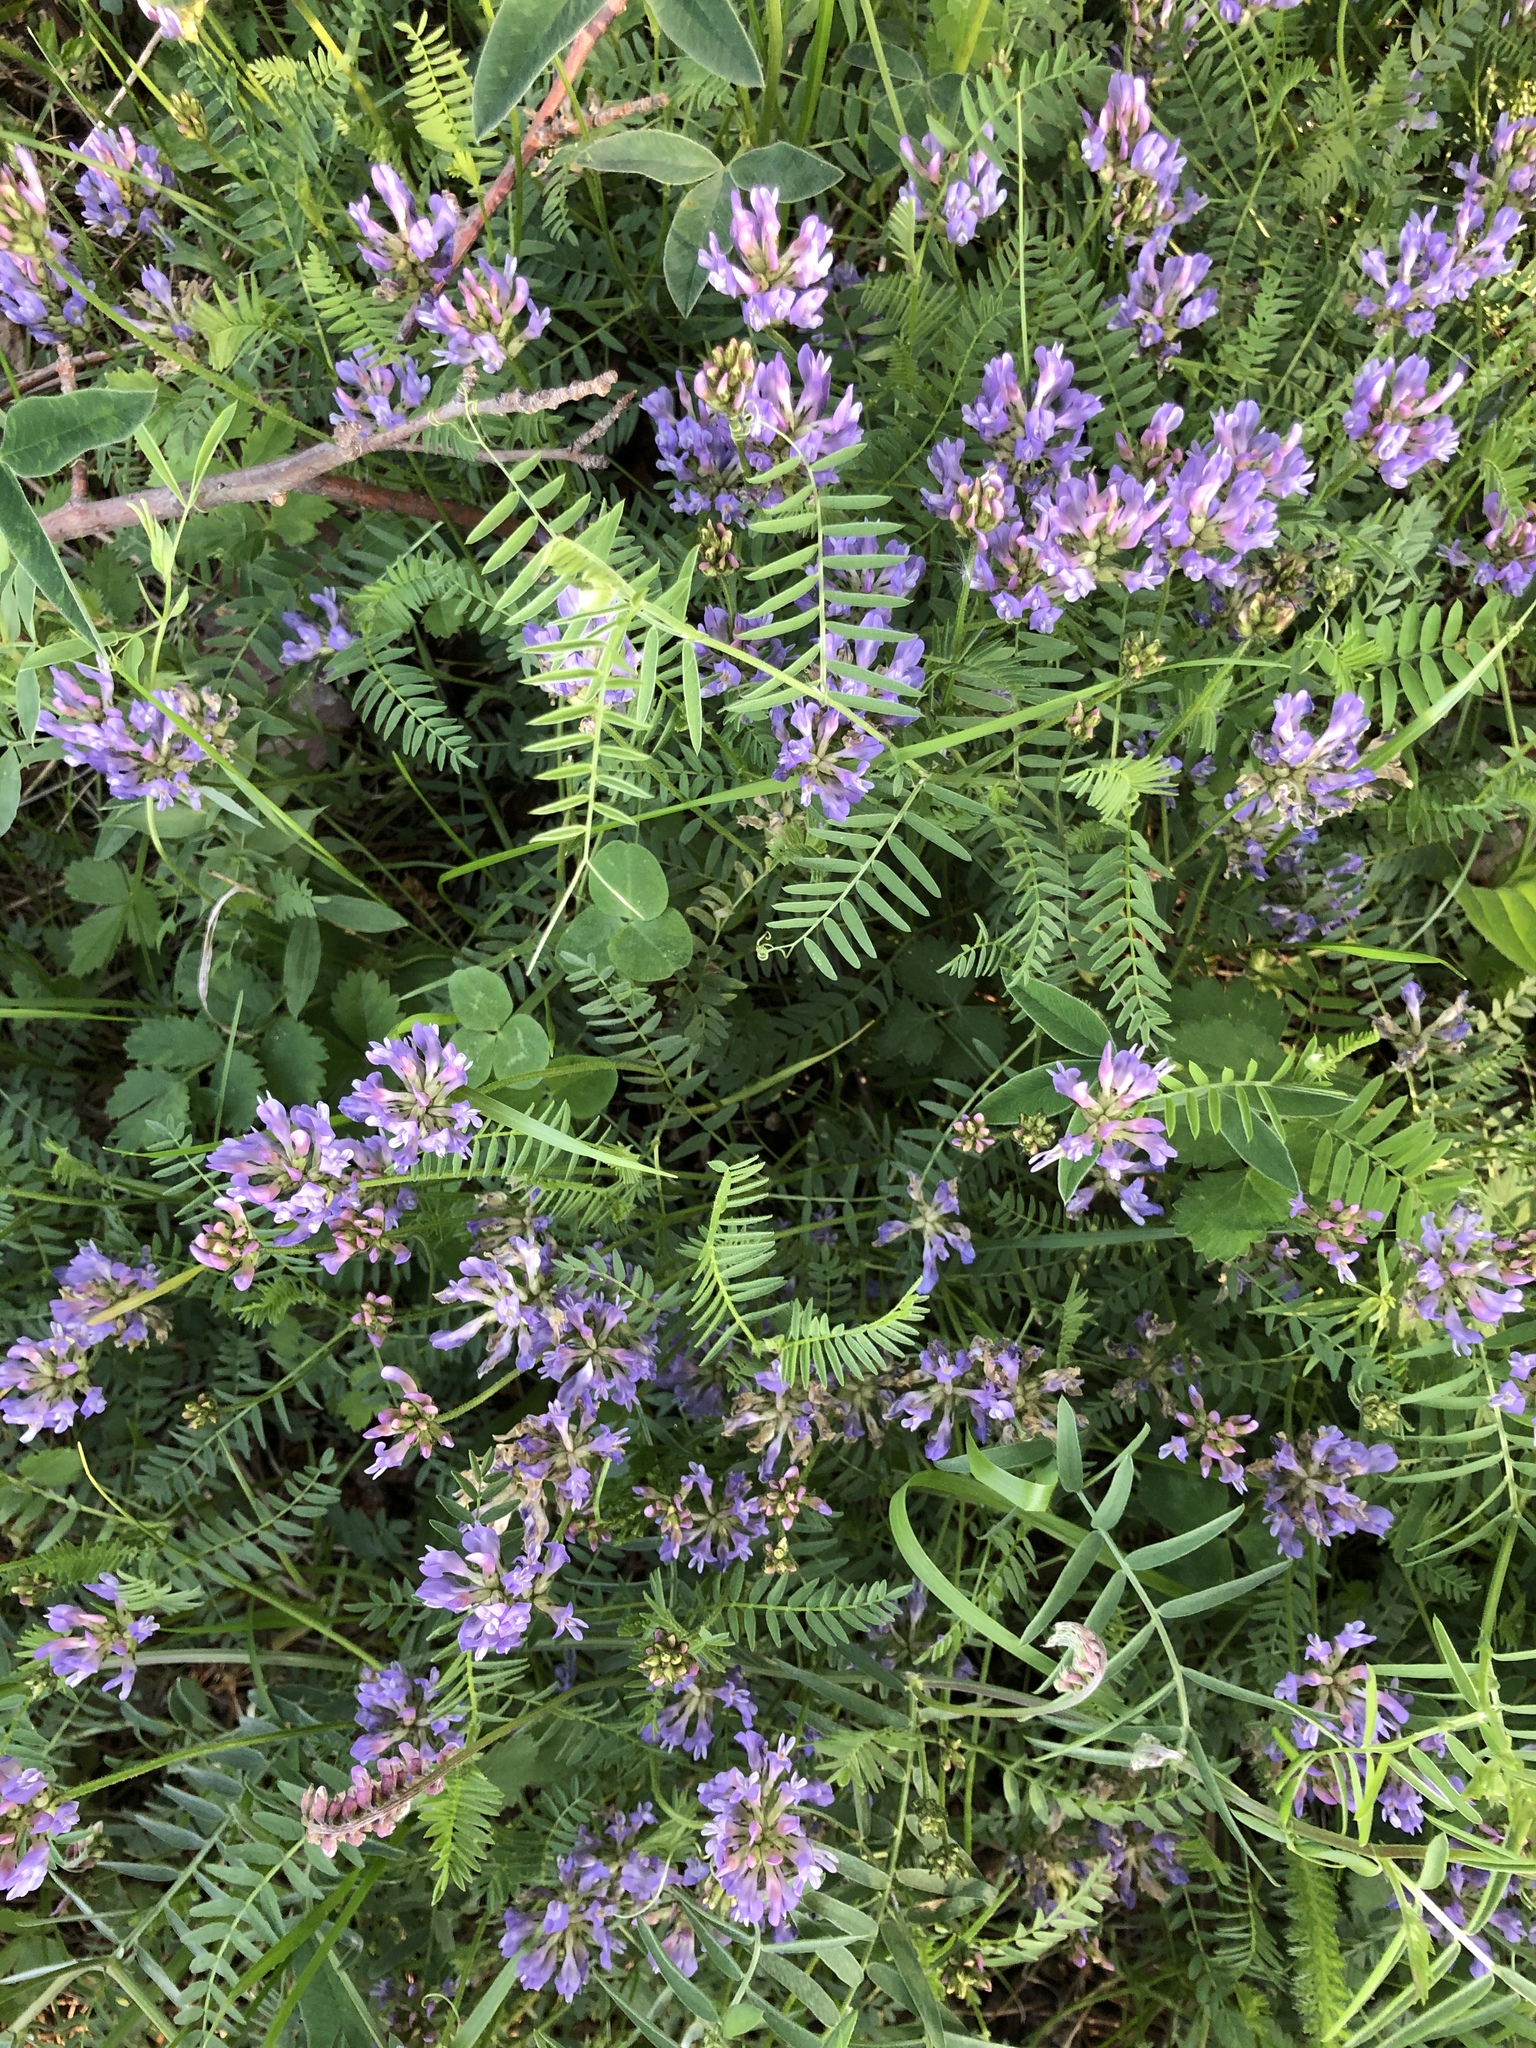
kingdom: Plantae
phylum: Tracheophyta
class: Magnoliopsida
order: Fabales
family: Fabaceae
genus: Astragalus
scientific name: Astragalus danicus
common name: Purple milk-vetch
